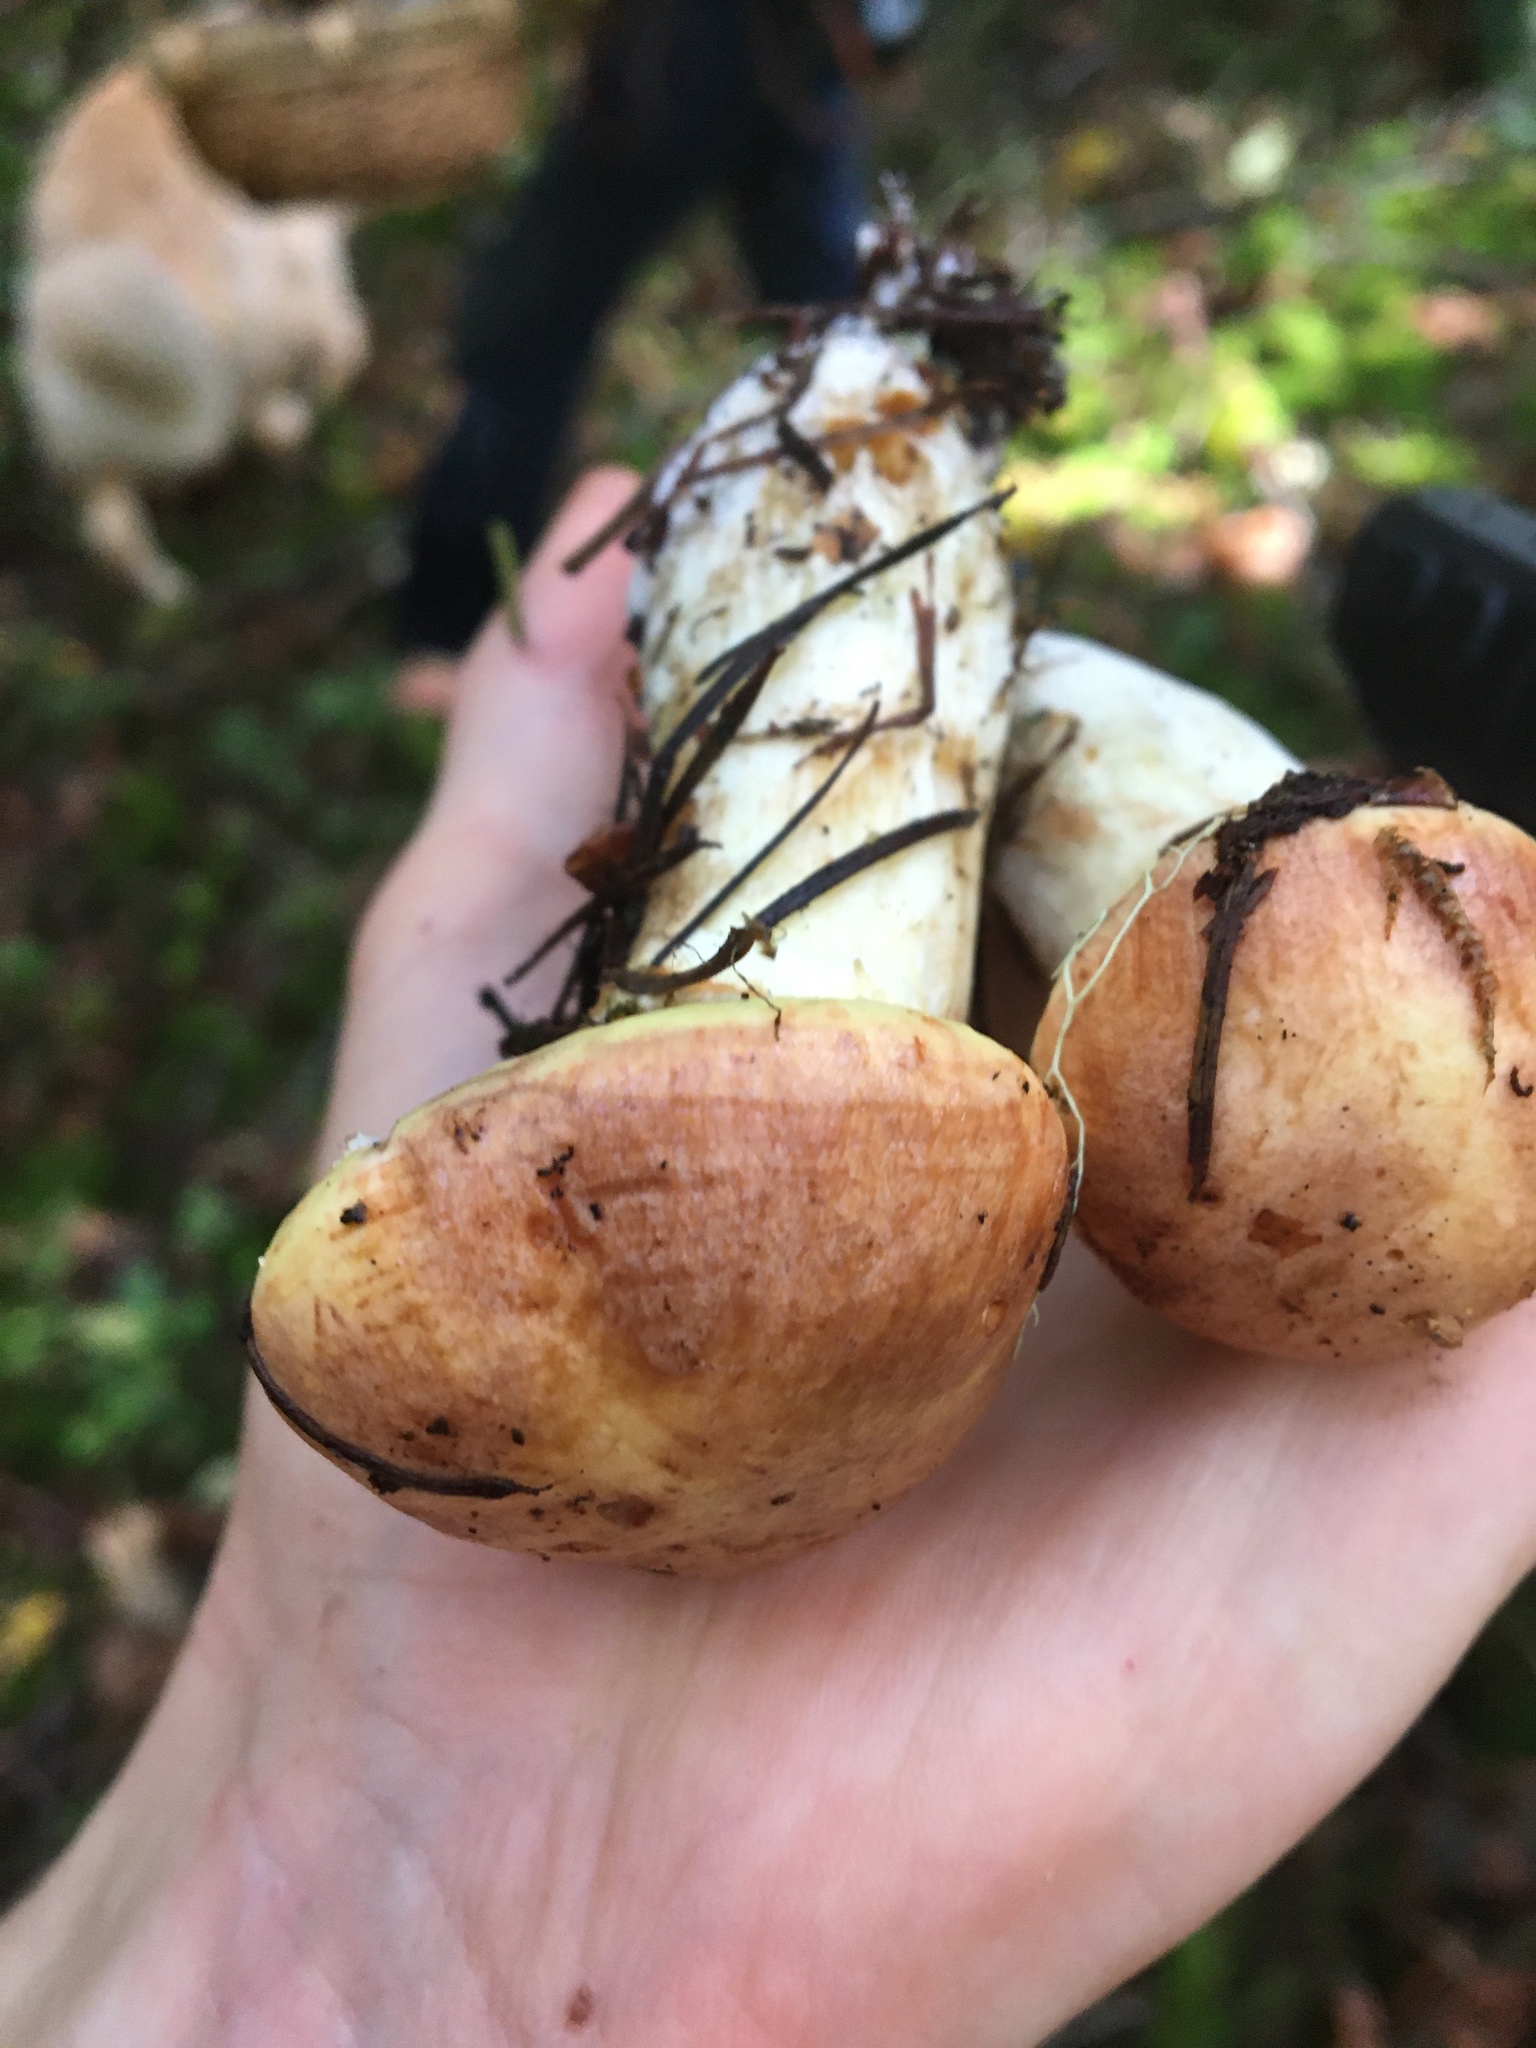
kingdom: Fungi
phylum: Basidiomycota
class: Agaricomycetes
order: Boletales
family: Suillaceae
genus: Suillus
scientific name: Suillus caerulescens
